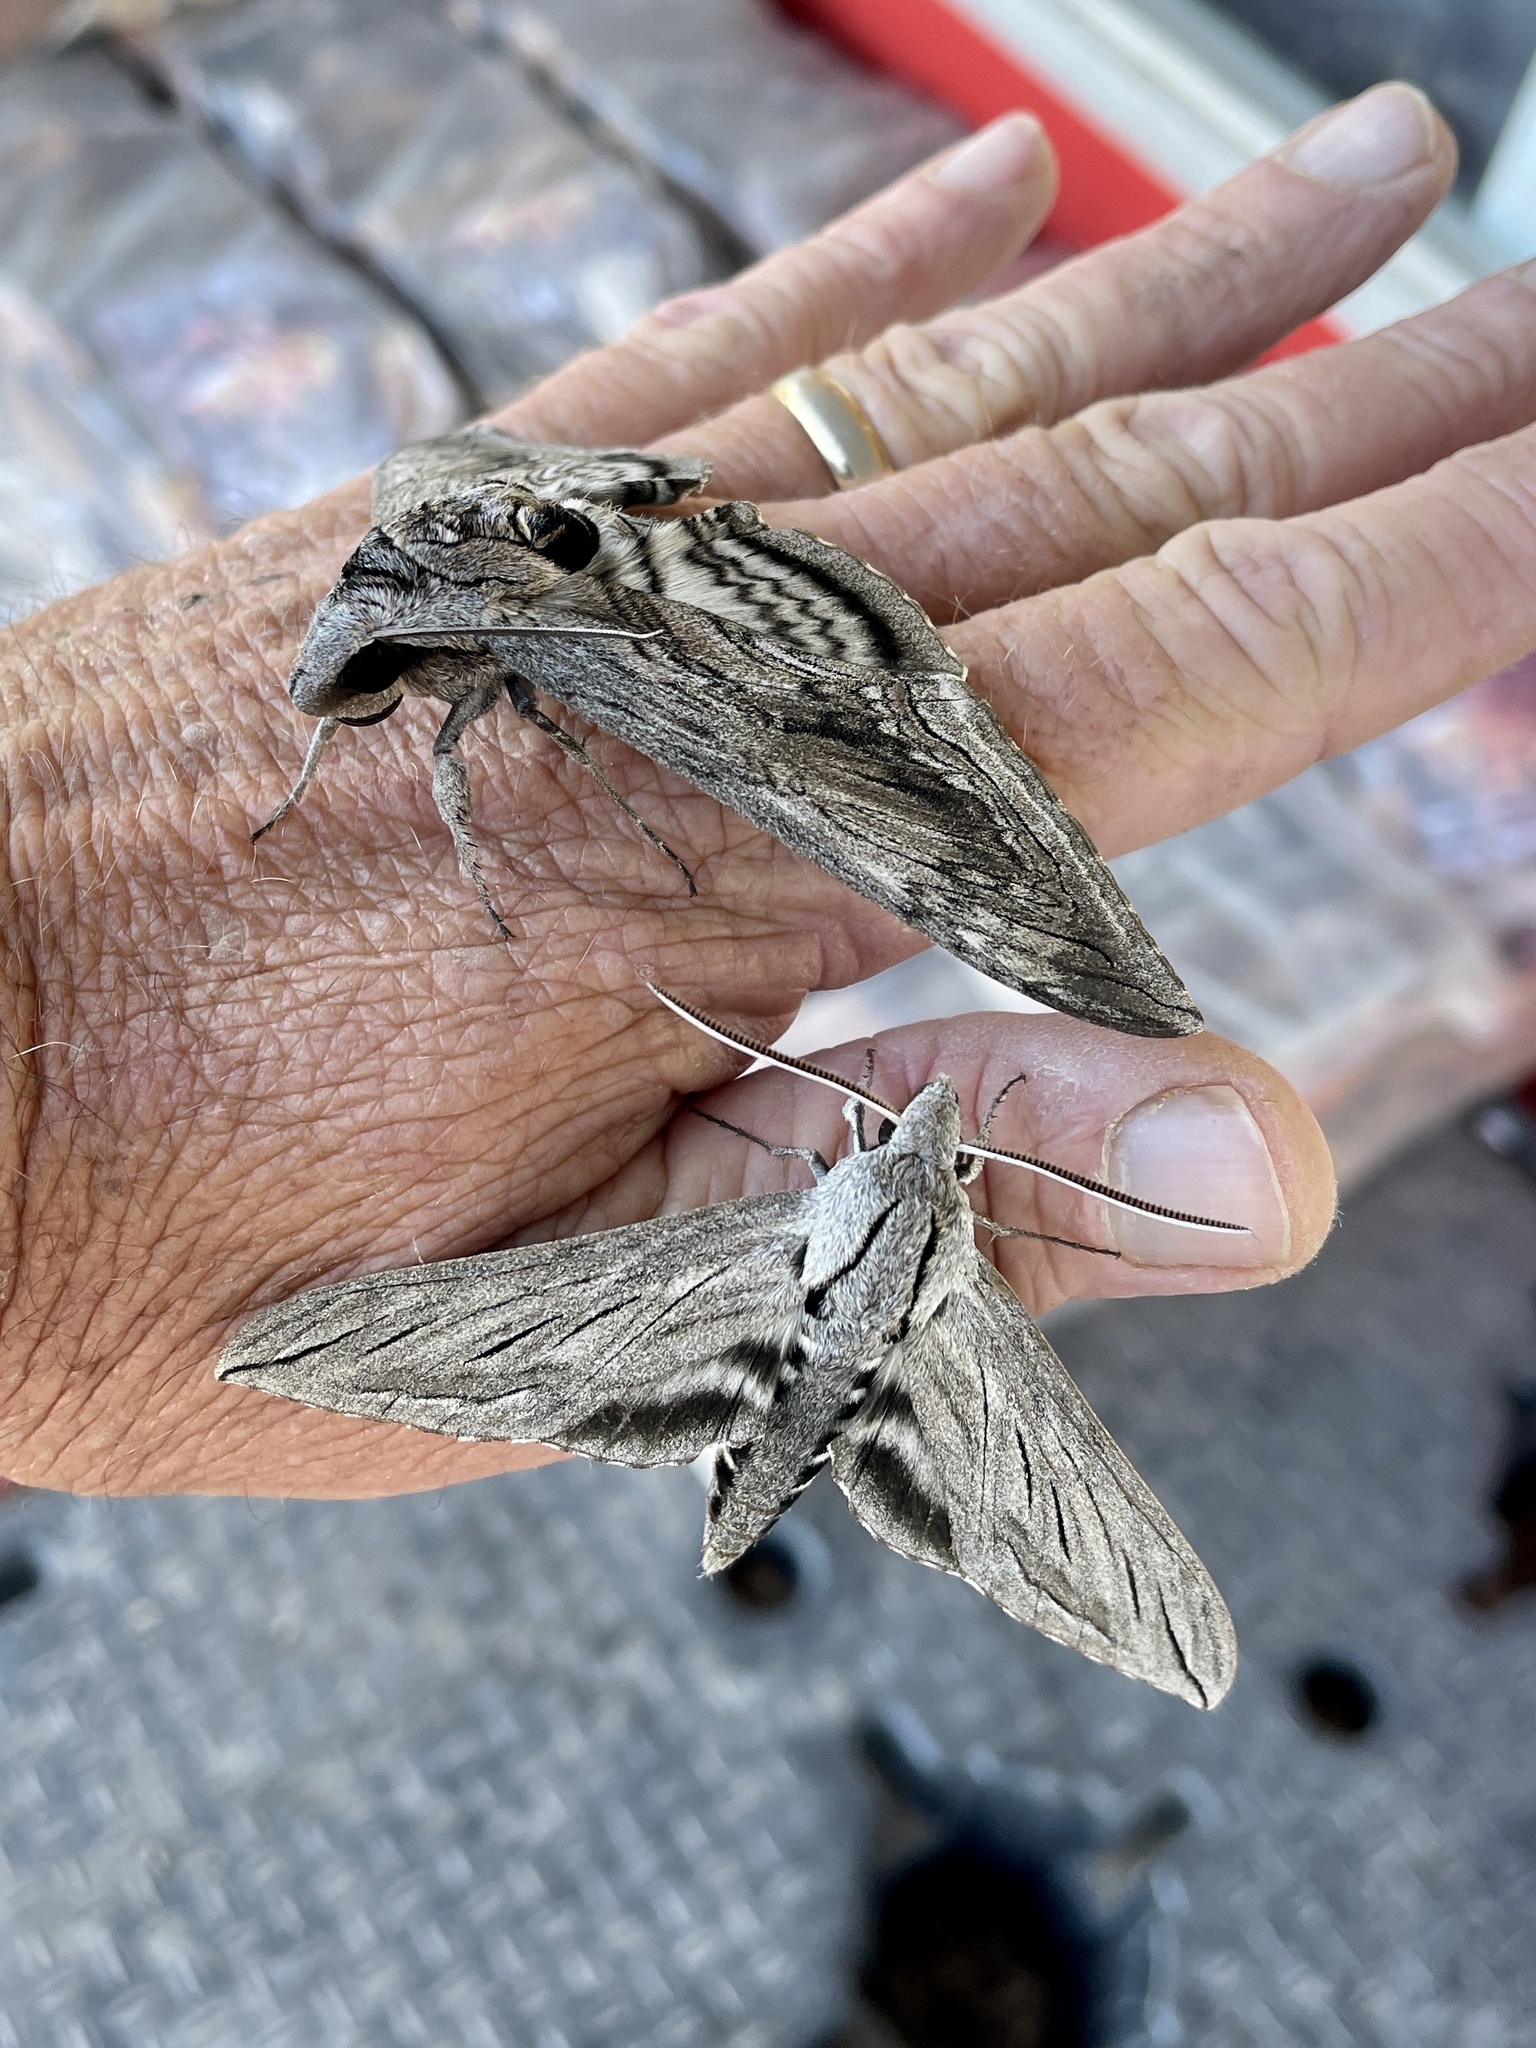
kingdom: Animalia
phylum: Arthropoda
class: Insecta
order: Lepidoptera
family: Sphingidae
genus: Sphinx
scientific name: Sphinx chersis
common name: Great ash sphinx
